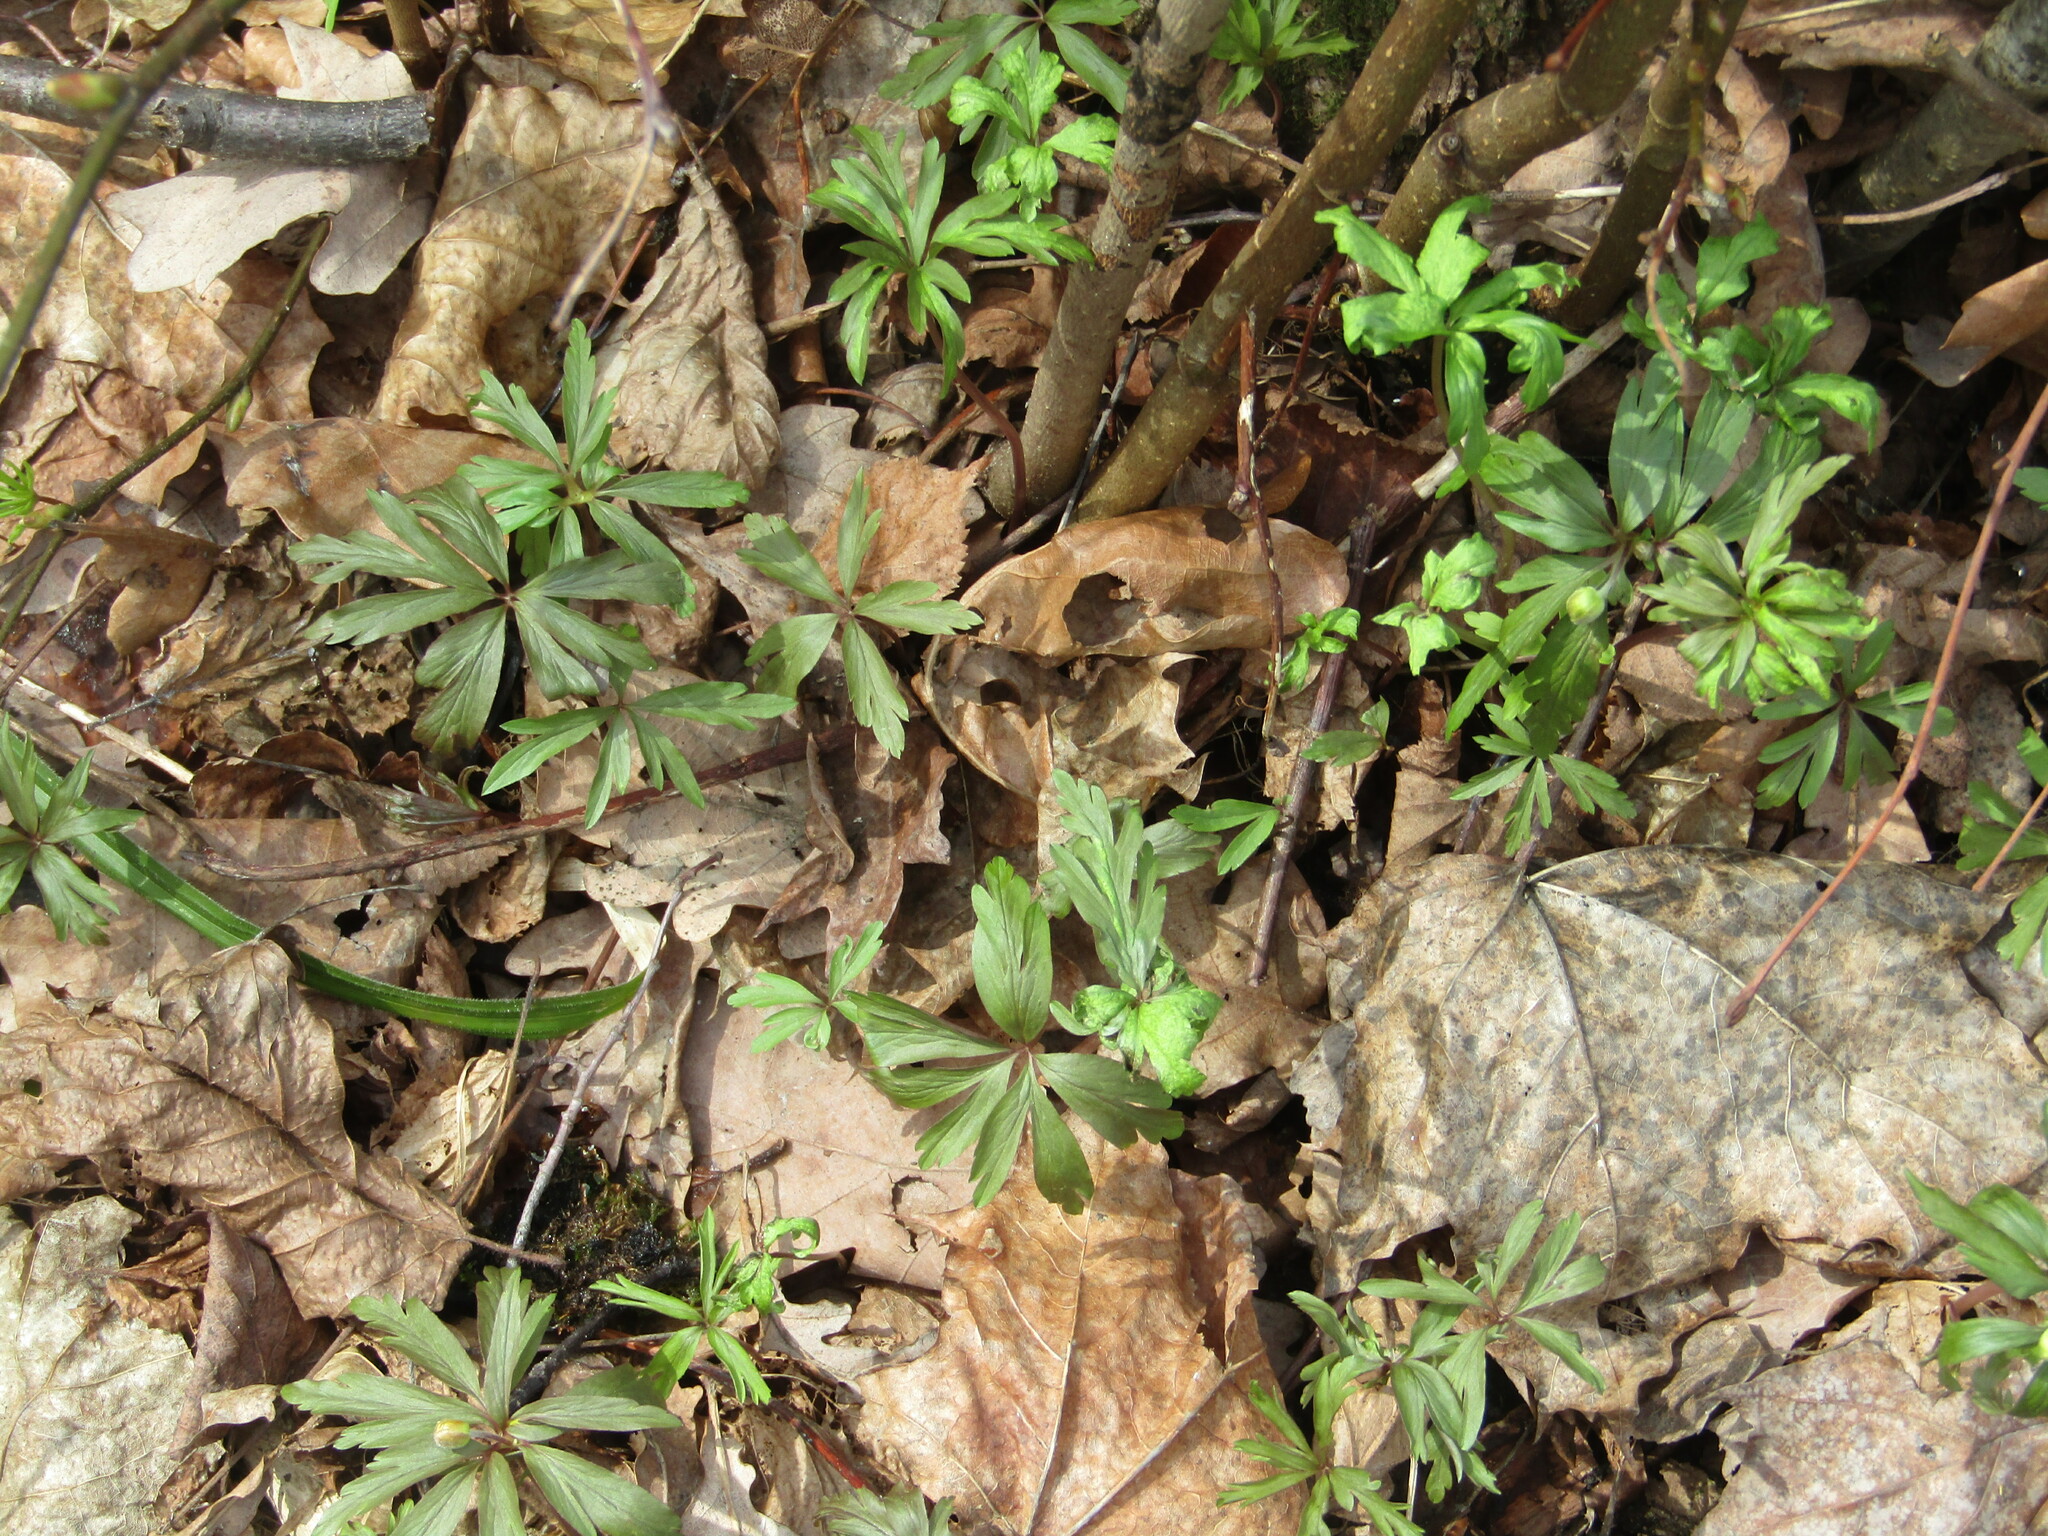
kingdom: Plantae
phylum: Tracheophyta
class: Magnoliopsida
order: Ranunculales
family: Ranunculaceae
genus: Anemone
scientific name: Anemone ranunculoides
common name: Yellow anemone
